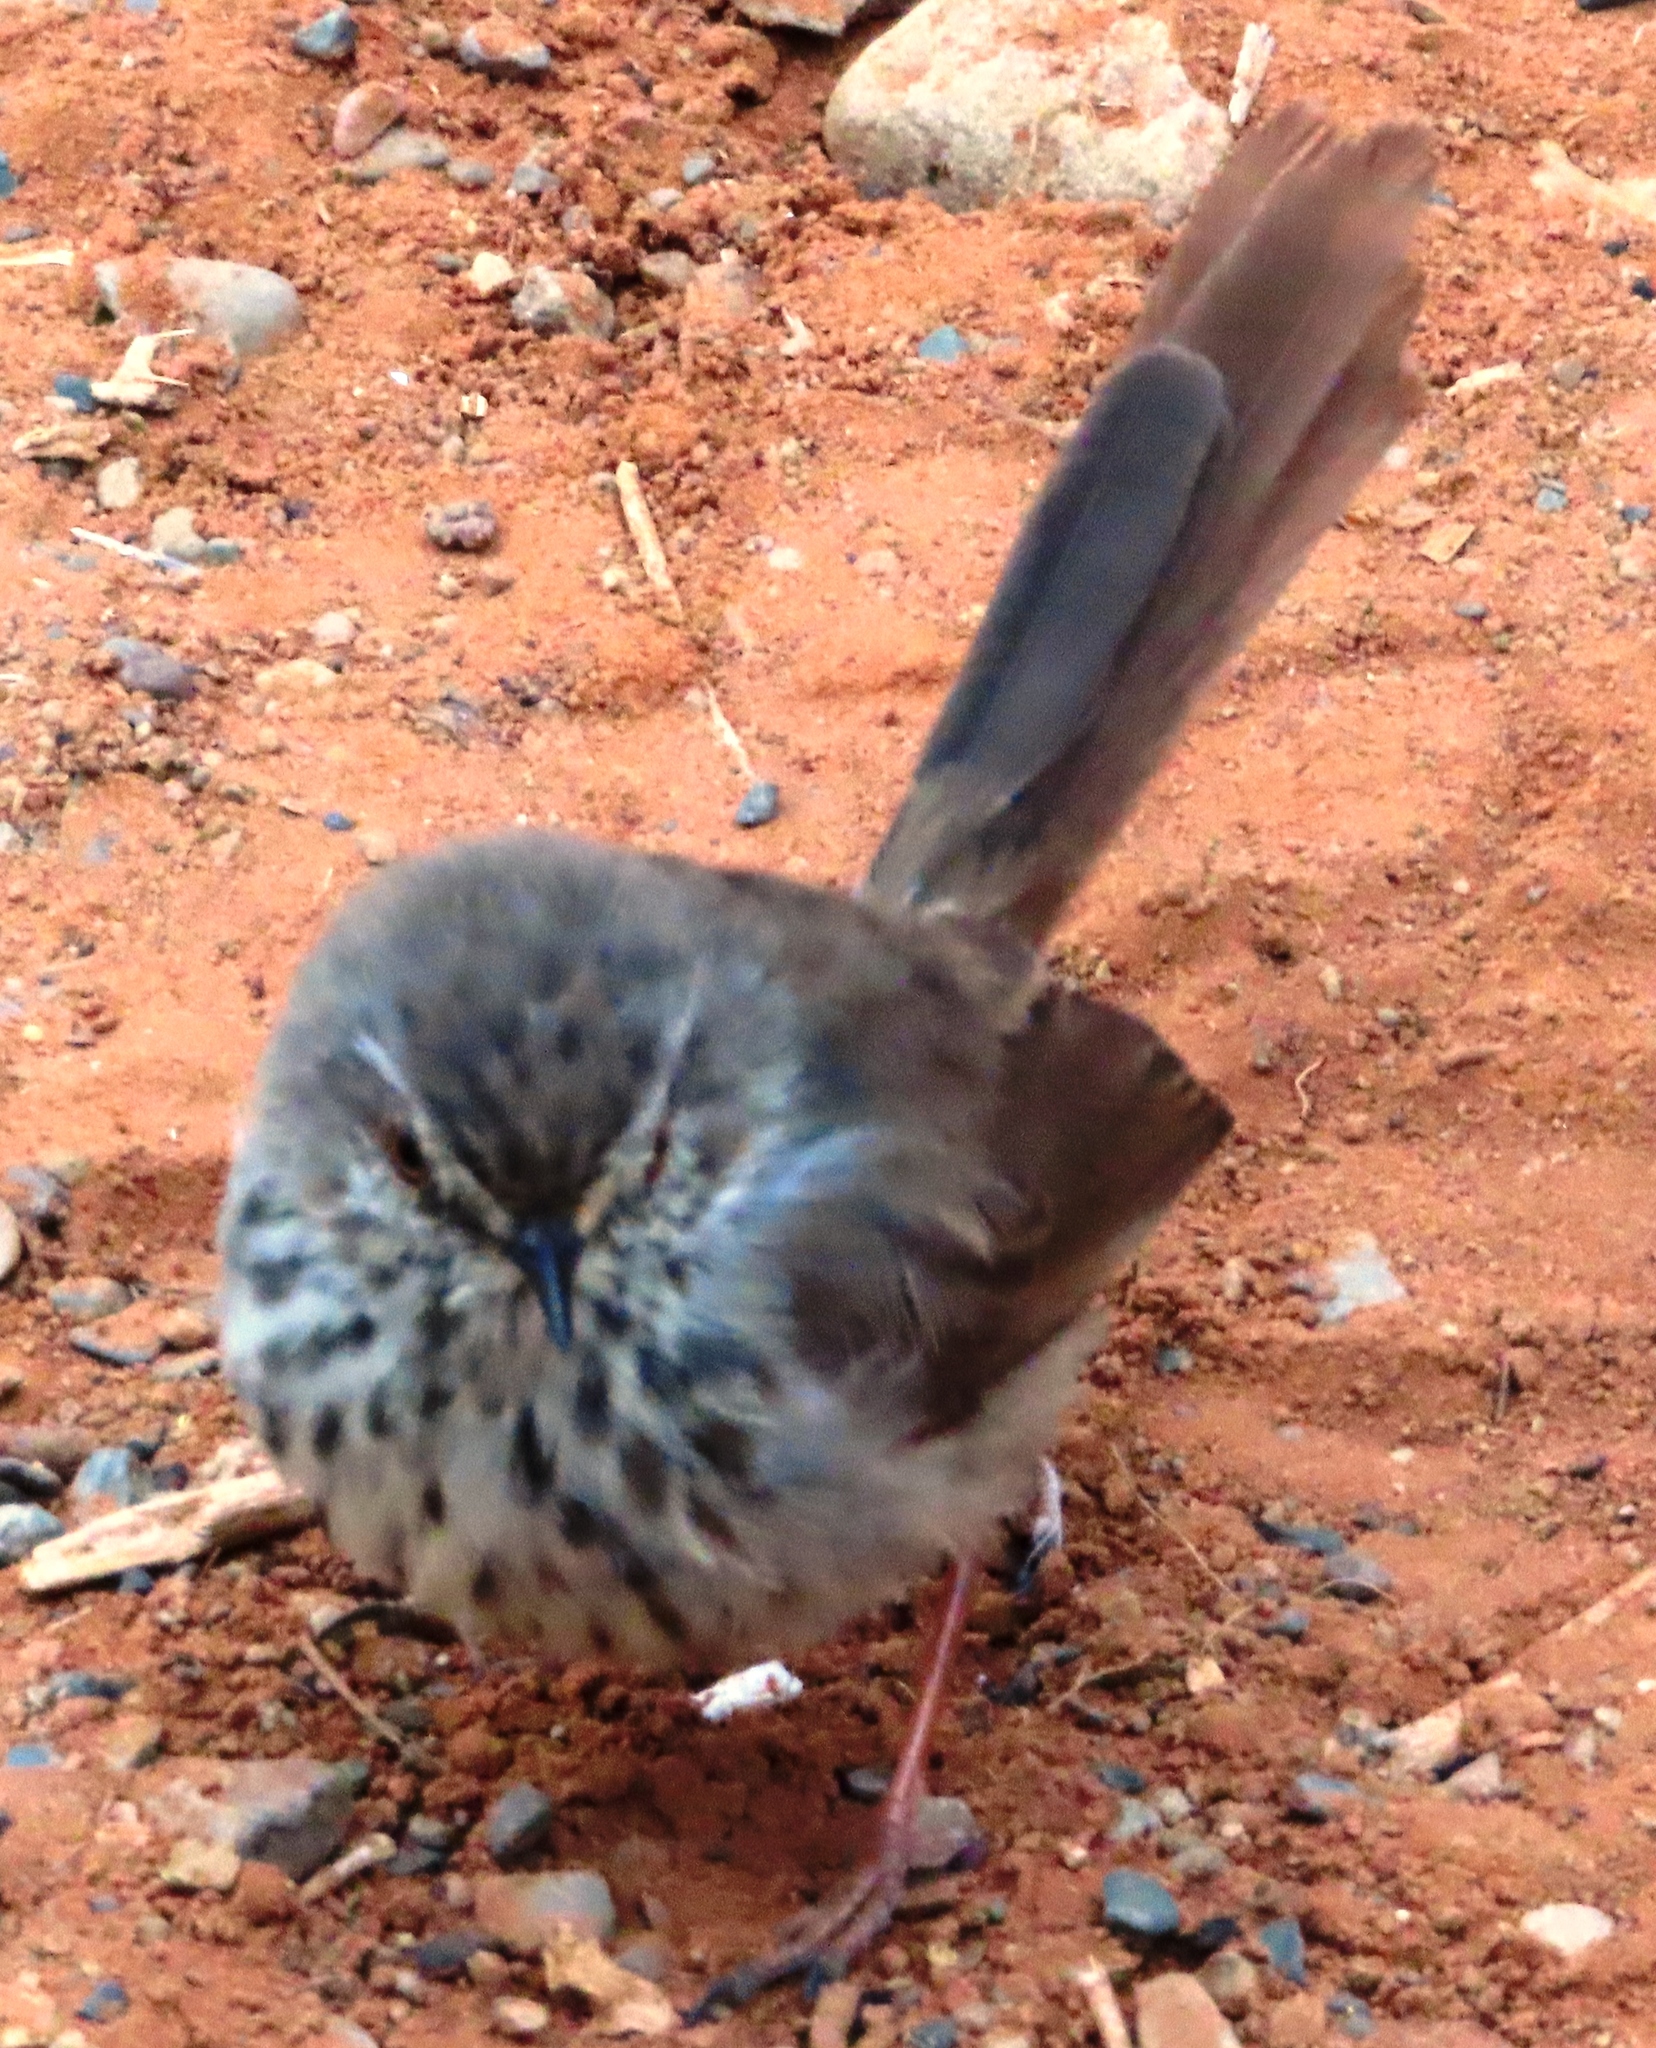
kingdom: Animalia
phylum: Chordata
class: Aves
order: Passeriformes
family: Cisticolidae
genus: Prinia
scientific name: Prinia maculosa
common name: Karoo prinia
